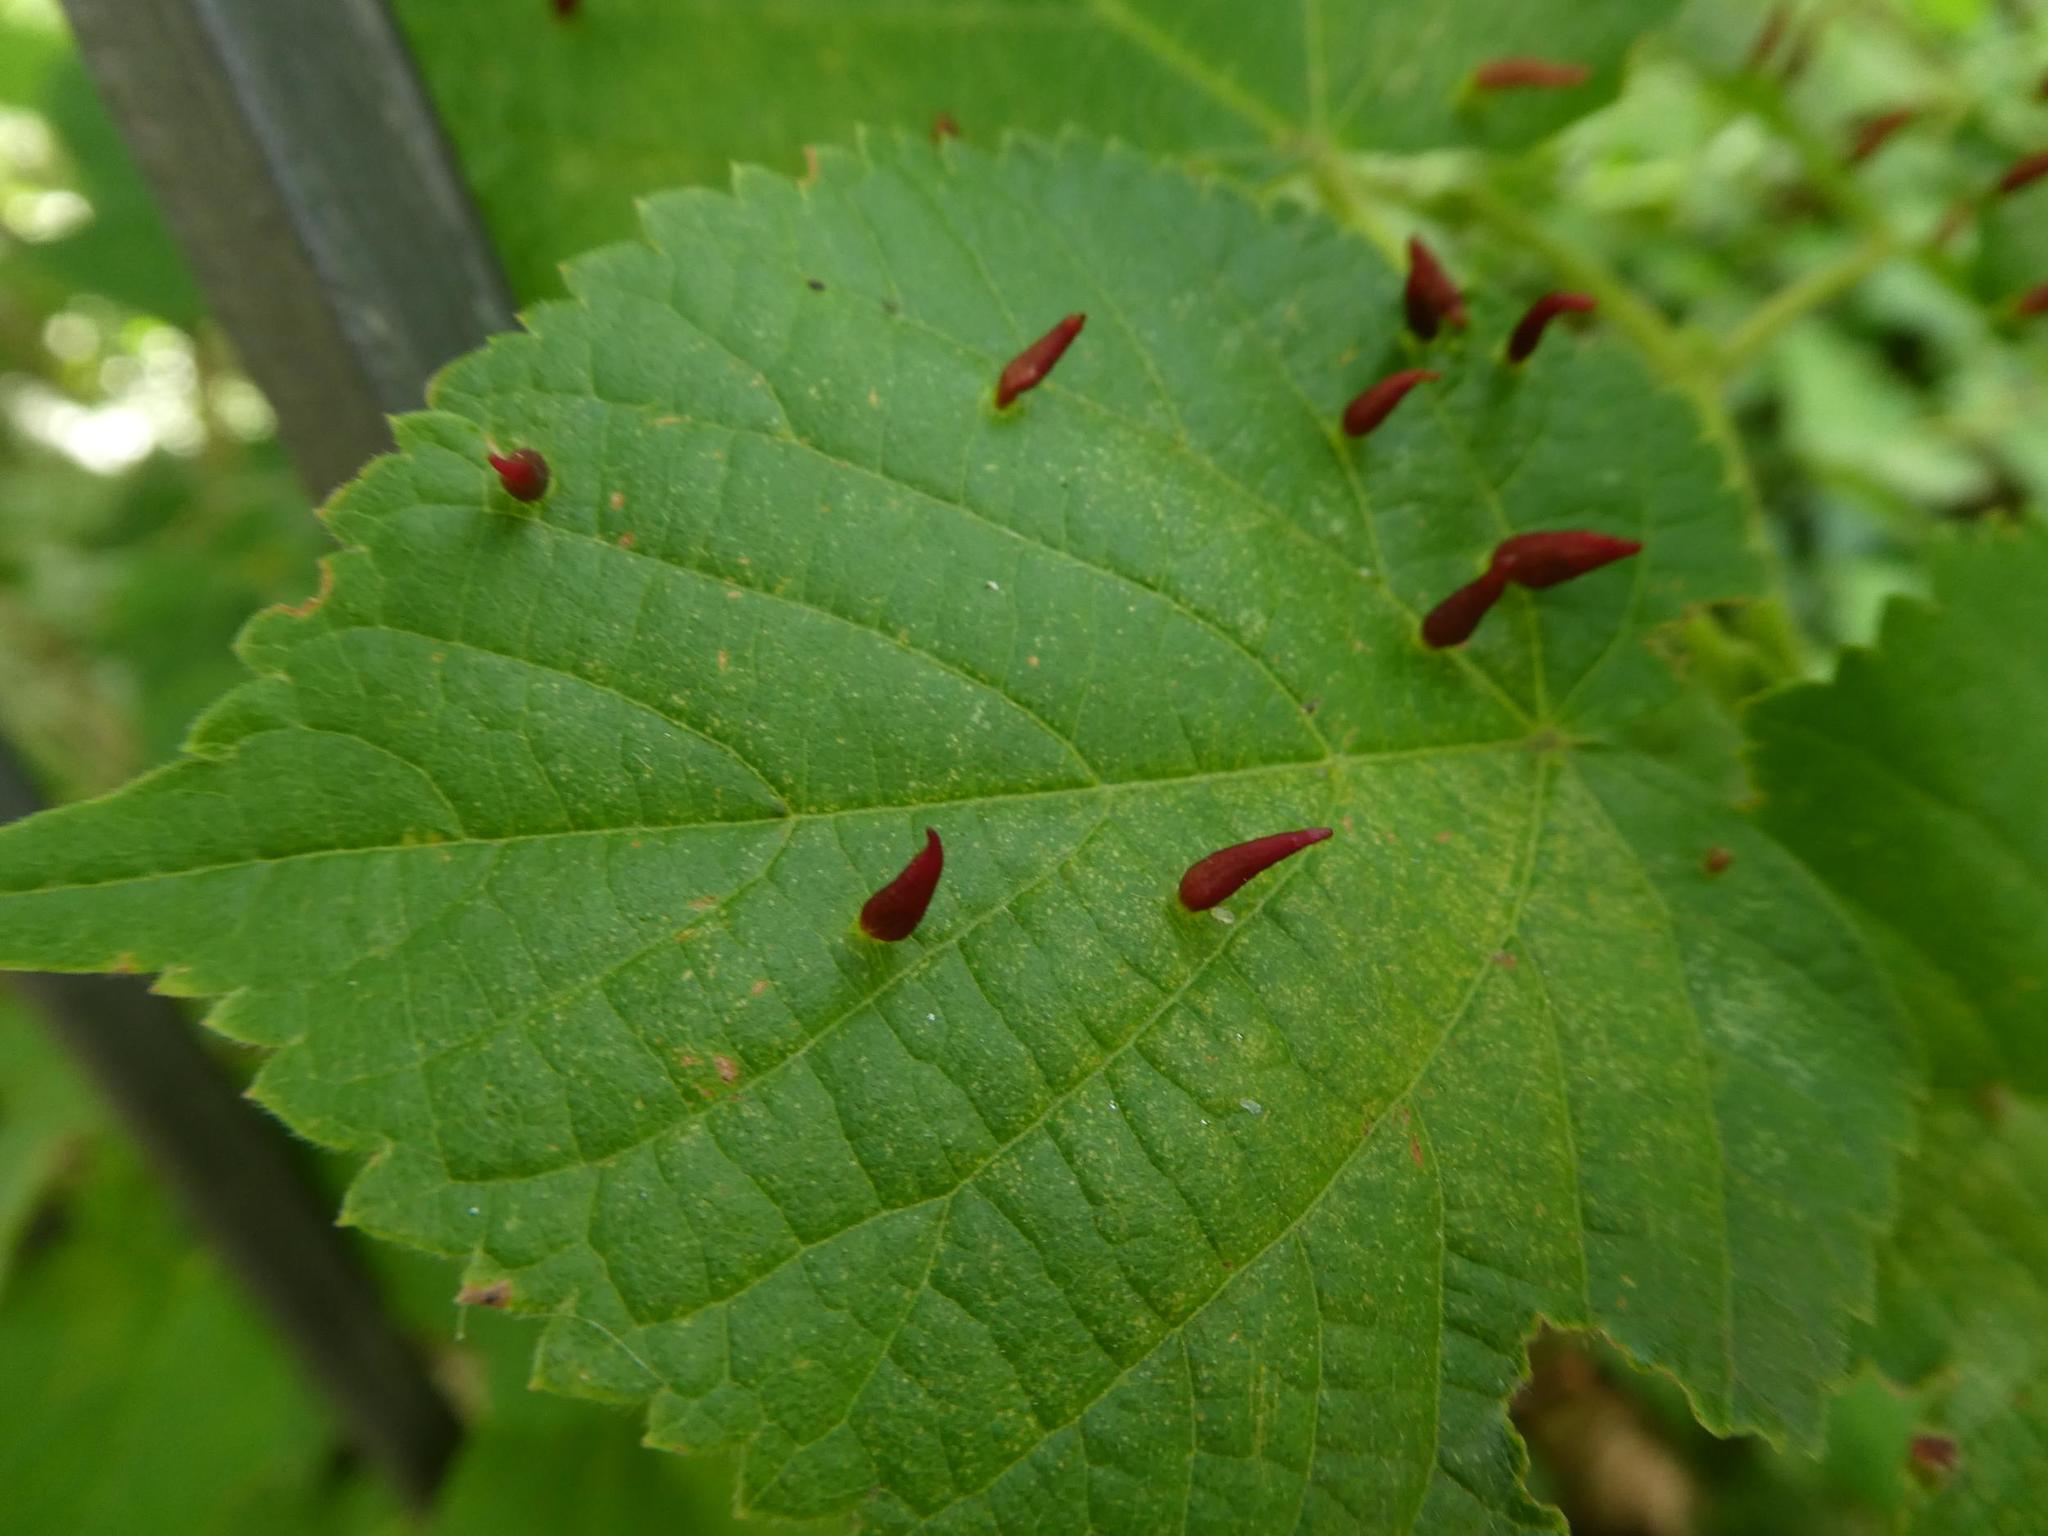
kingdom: Animalia
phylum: Arthropoda
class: Arachnida
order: Trombidiformes
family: Eriophyidae
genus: Eriophyes
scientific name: Eriophyes tiliae
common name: Red nail gall mite
